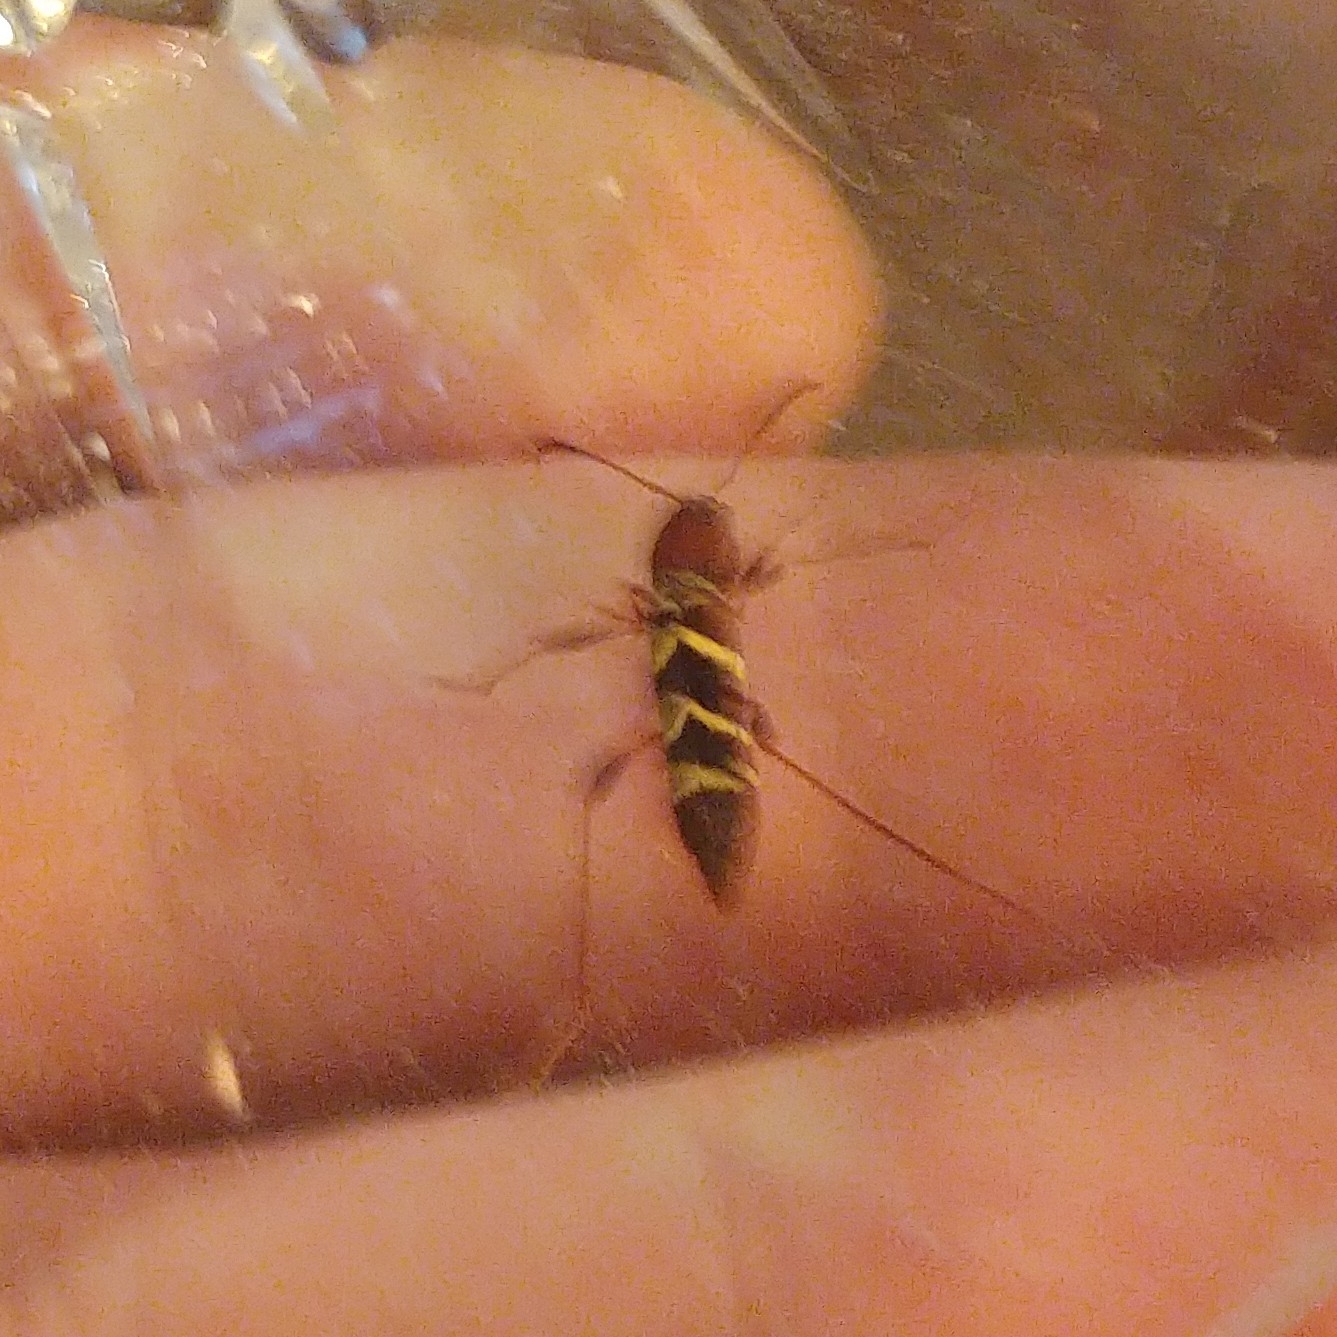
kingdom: Animalia
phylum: Arthropoda
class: Insecta
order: Coleoptera
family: Cerambycidae
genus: Neoclytus
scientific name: Neoclytus acuminatus
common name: Read-headed ash borer
